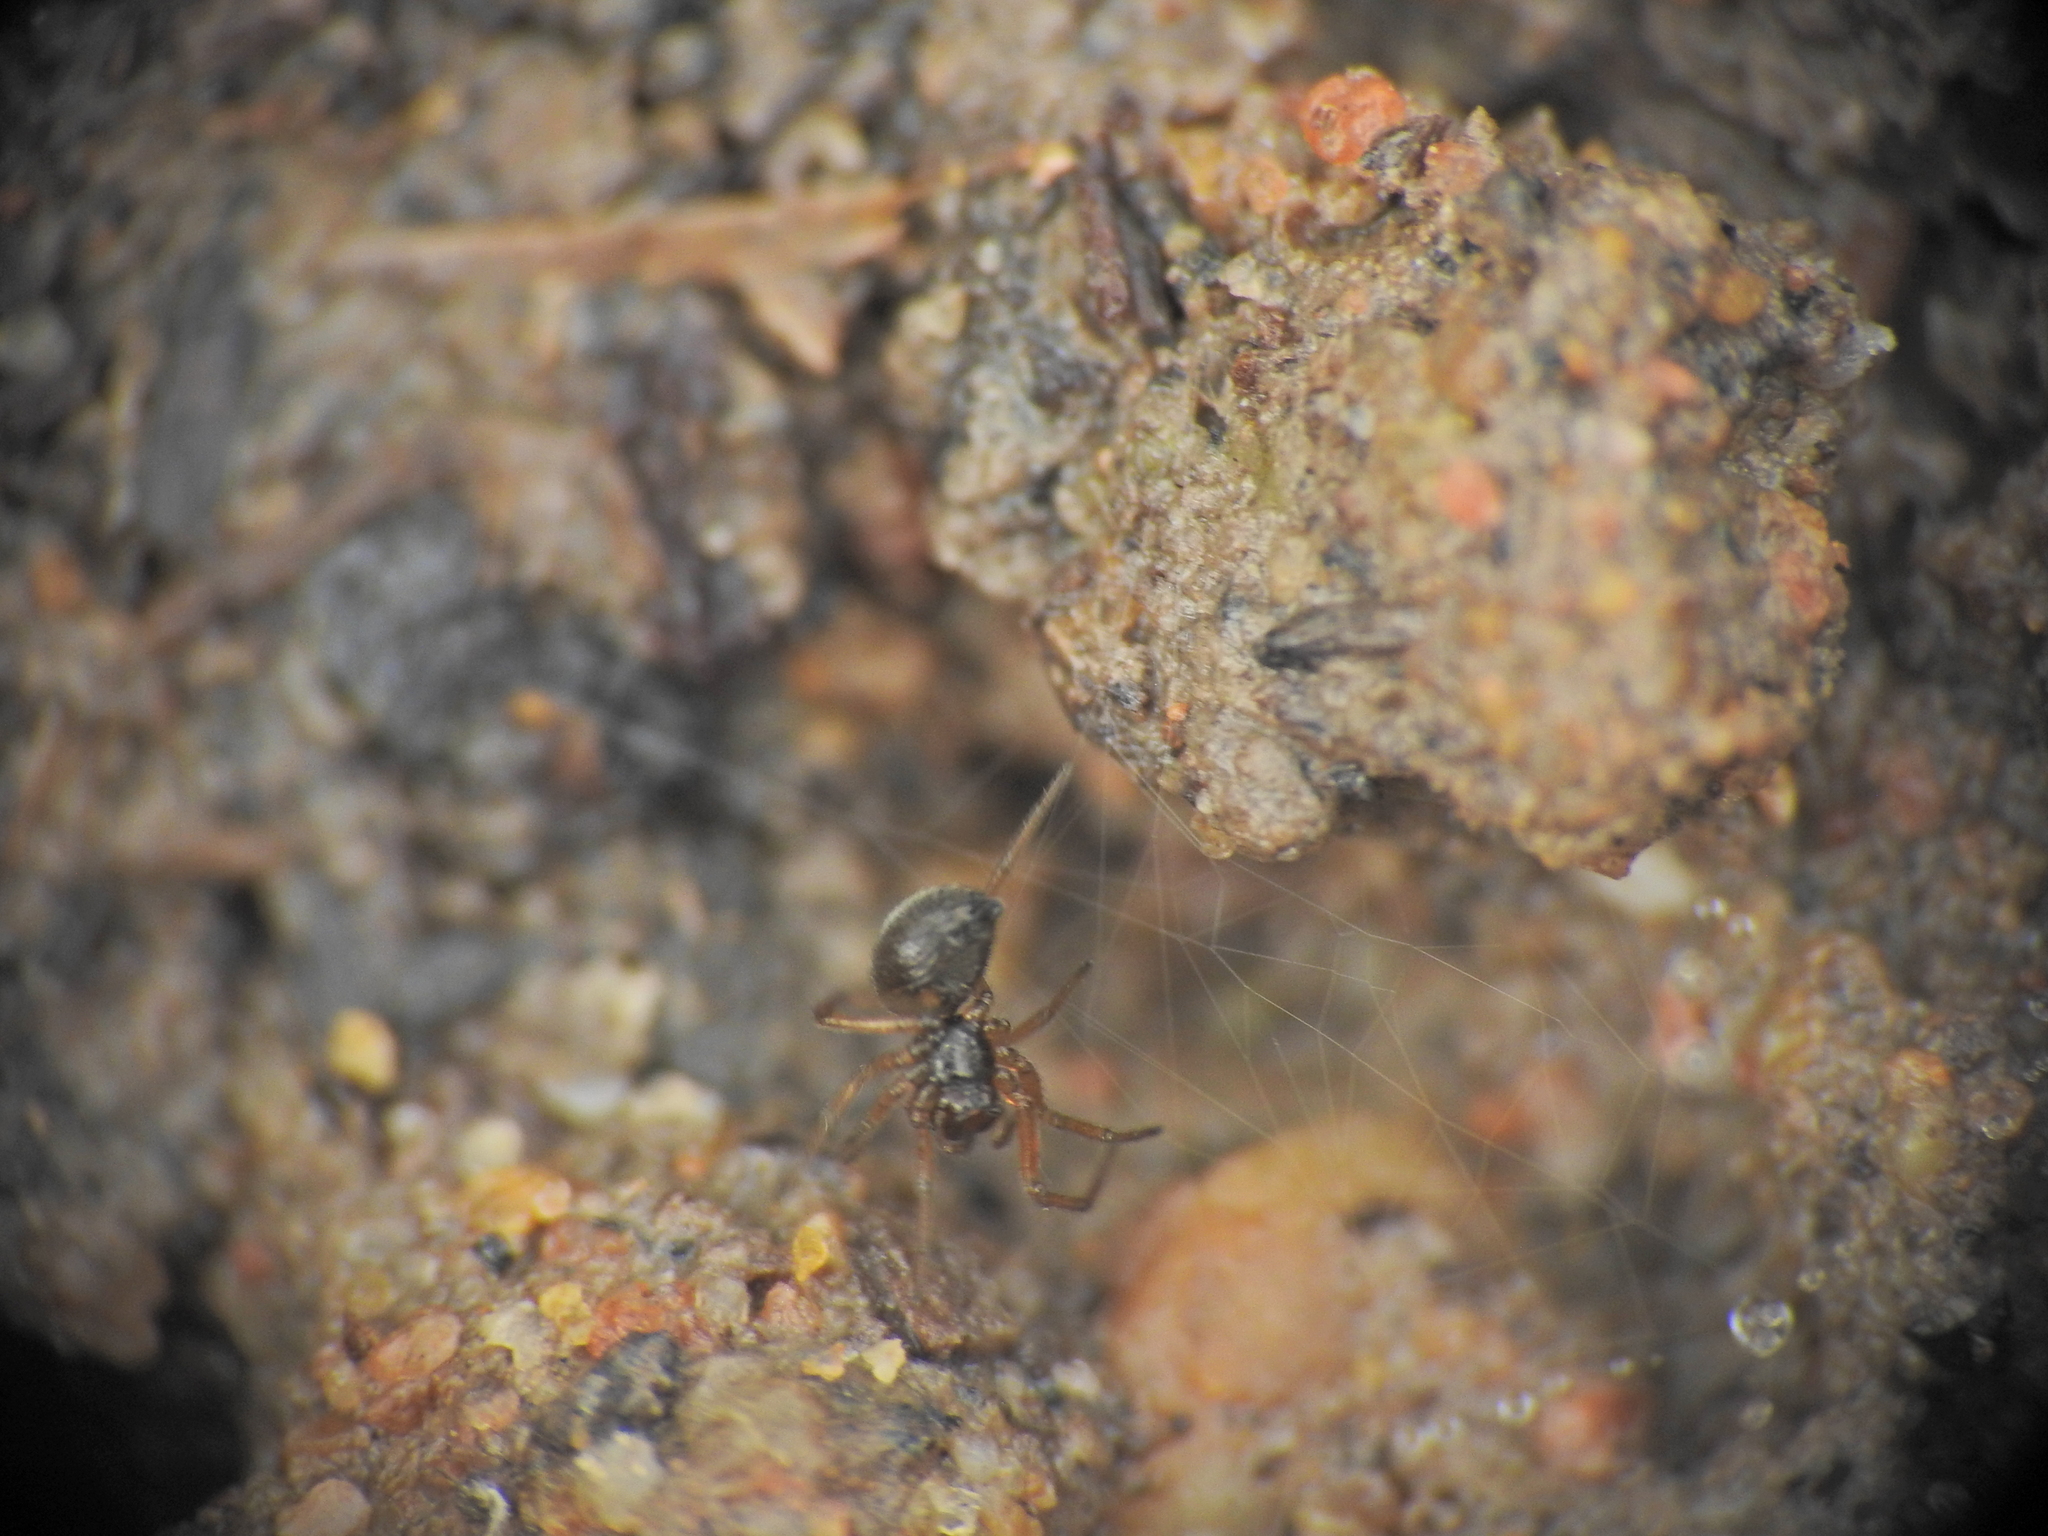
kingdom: Animalia
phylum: Arthropoda
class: Arachnida
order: Araneae
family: Linyphiidae
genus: Erigone
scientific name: Erigone eisenschmidti
